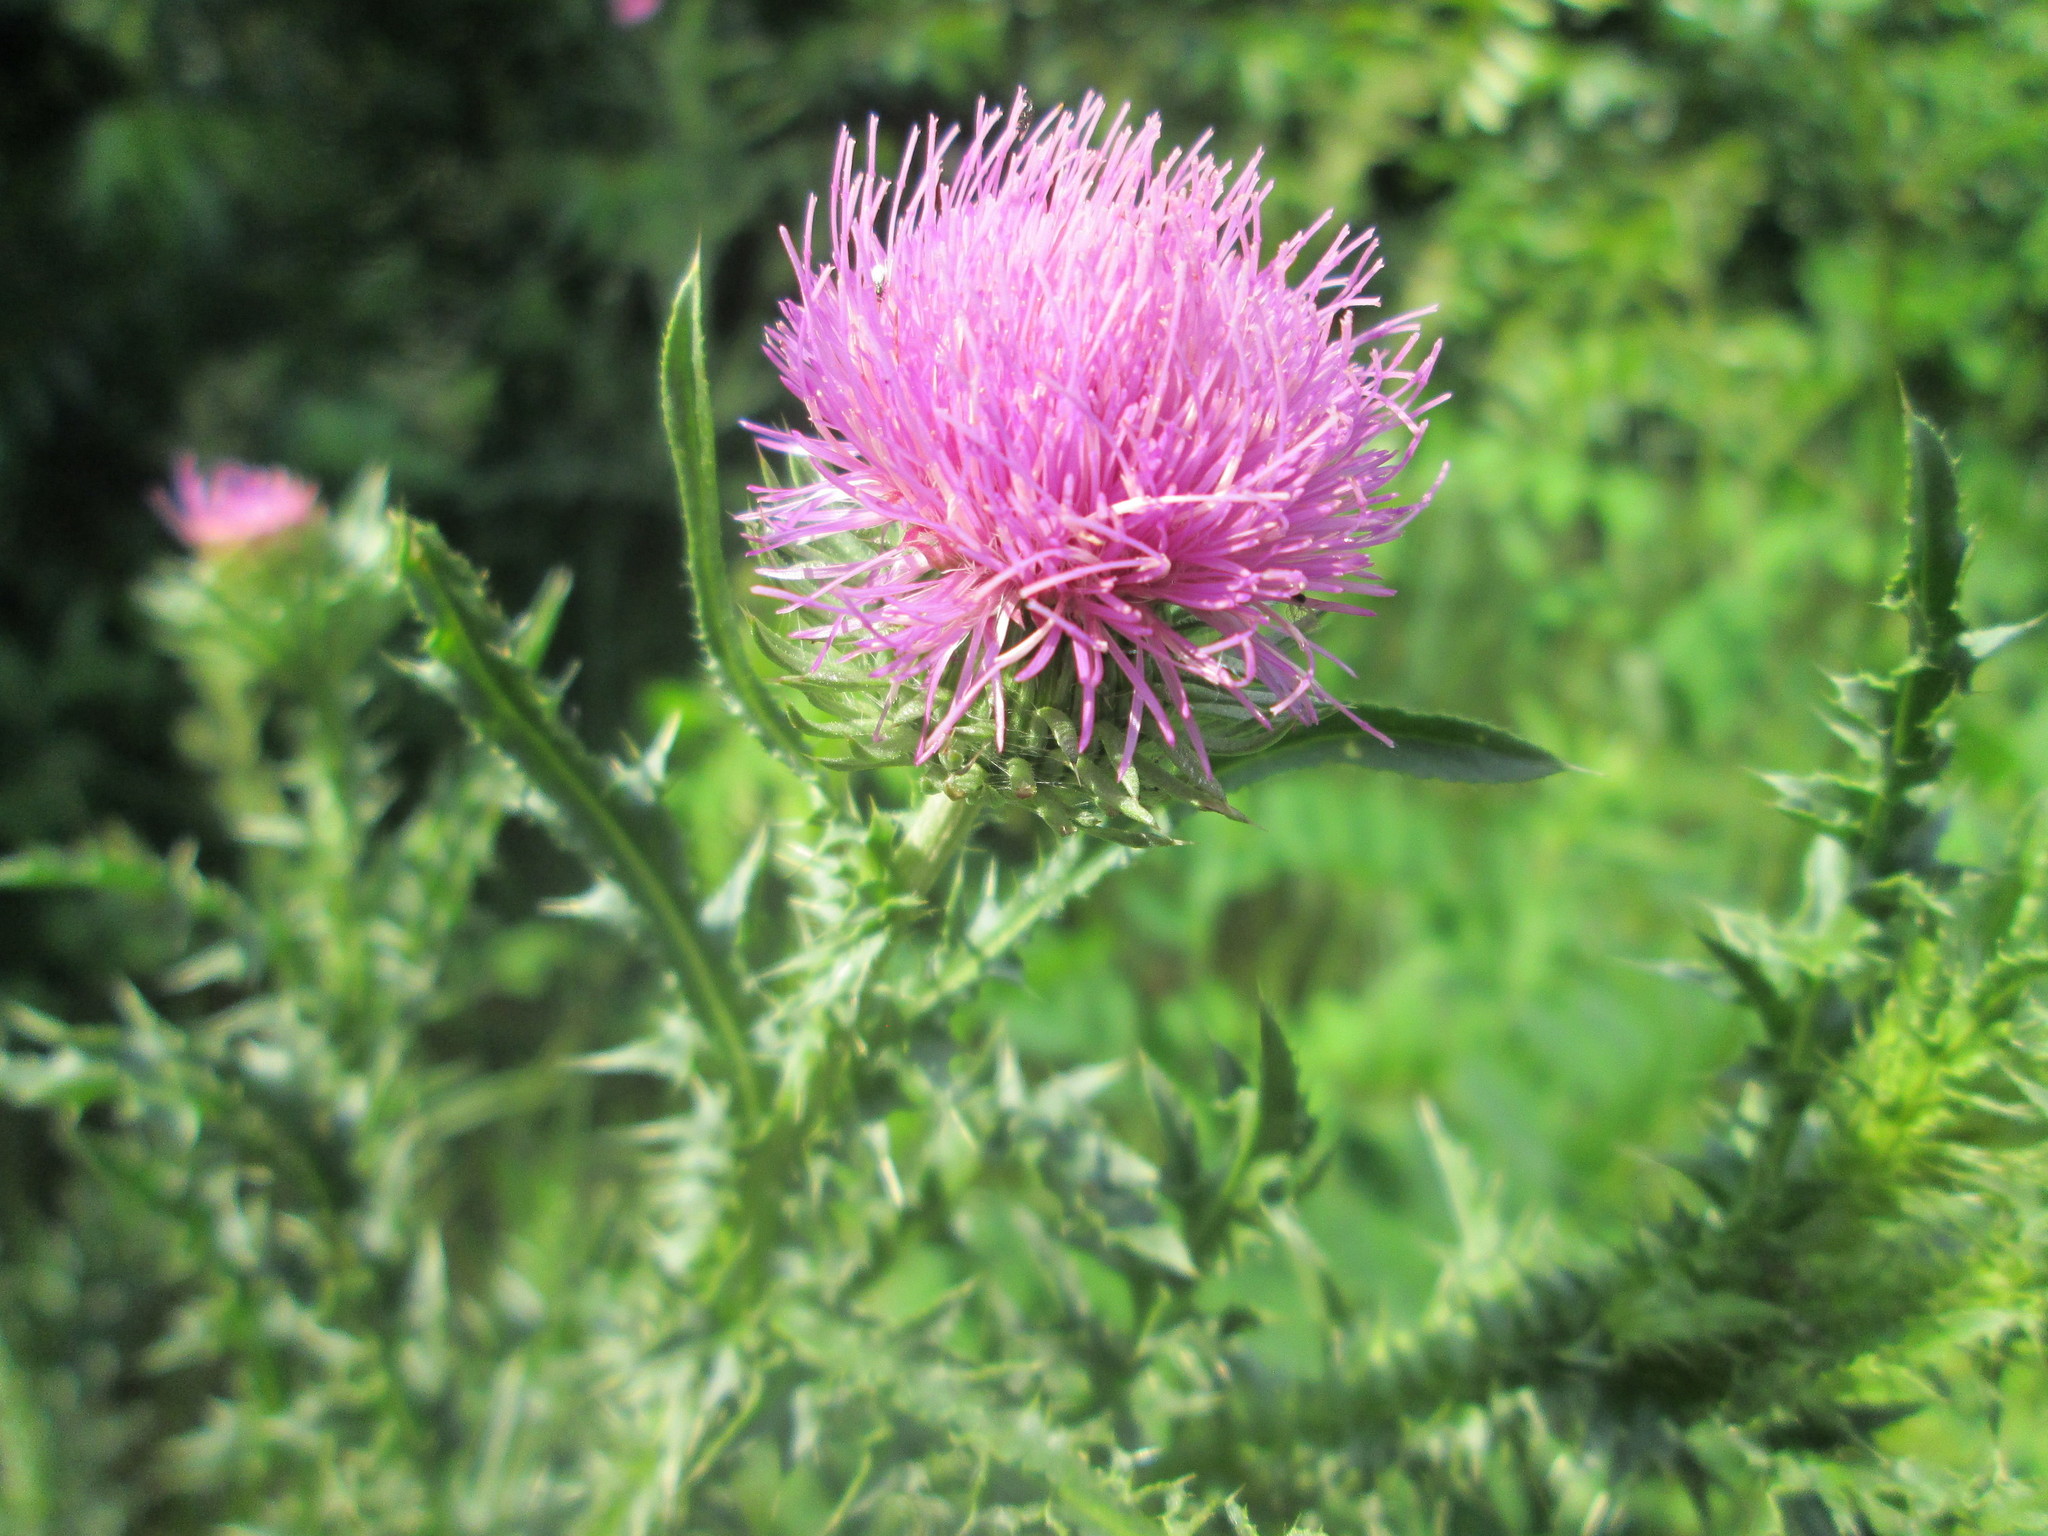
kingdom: Plantae
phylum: Tracheophyta
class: Magnoliopsida
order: Asterales
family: Asteraceae
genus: Carduus
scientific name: Carduus acanthoides
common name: Plumeless thistle
